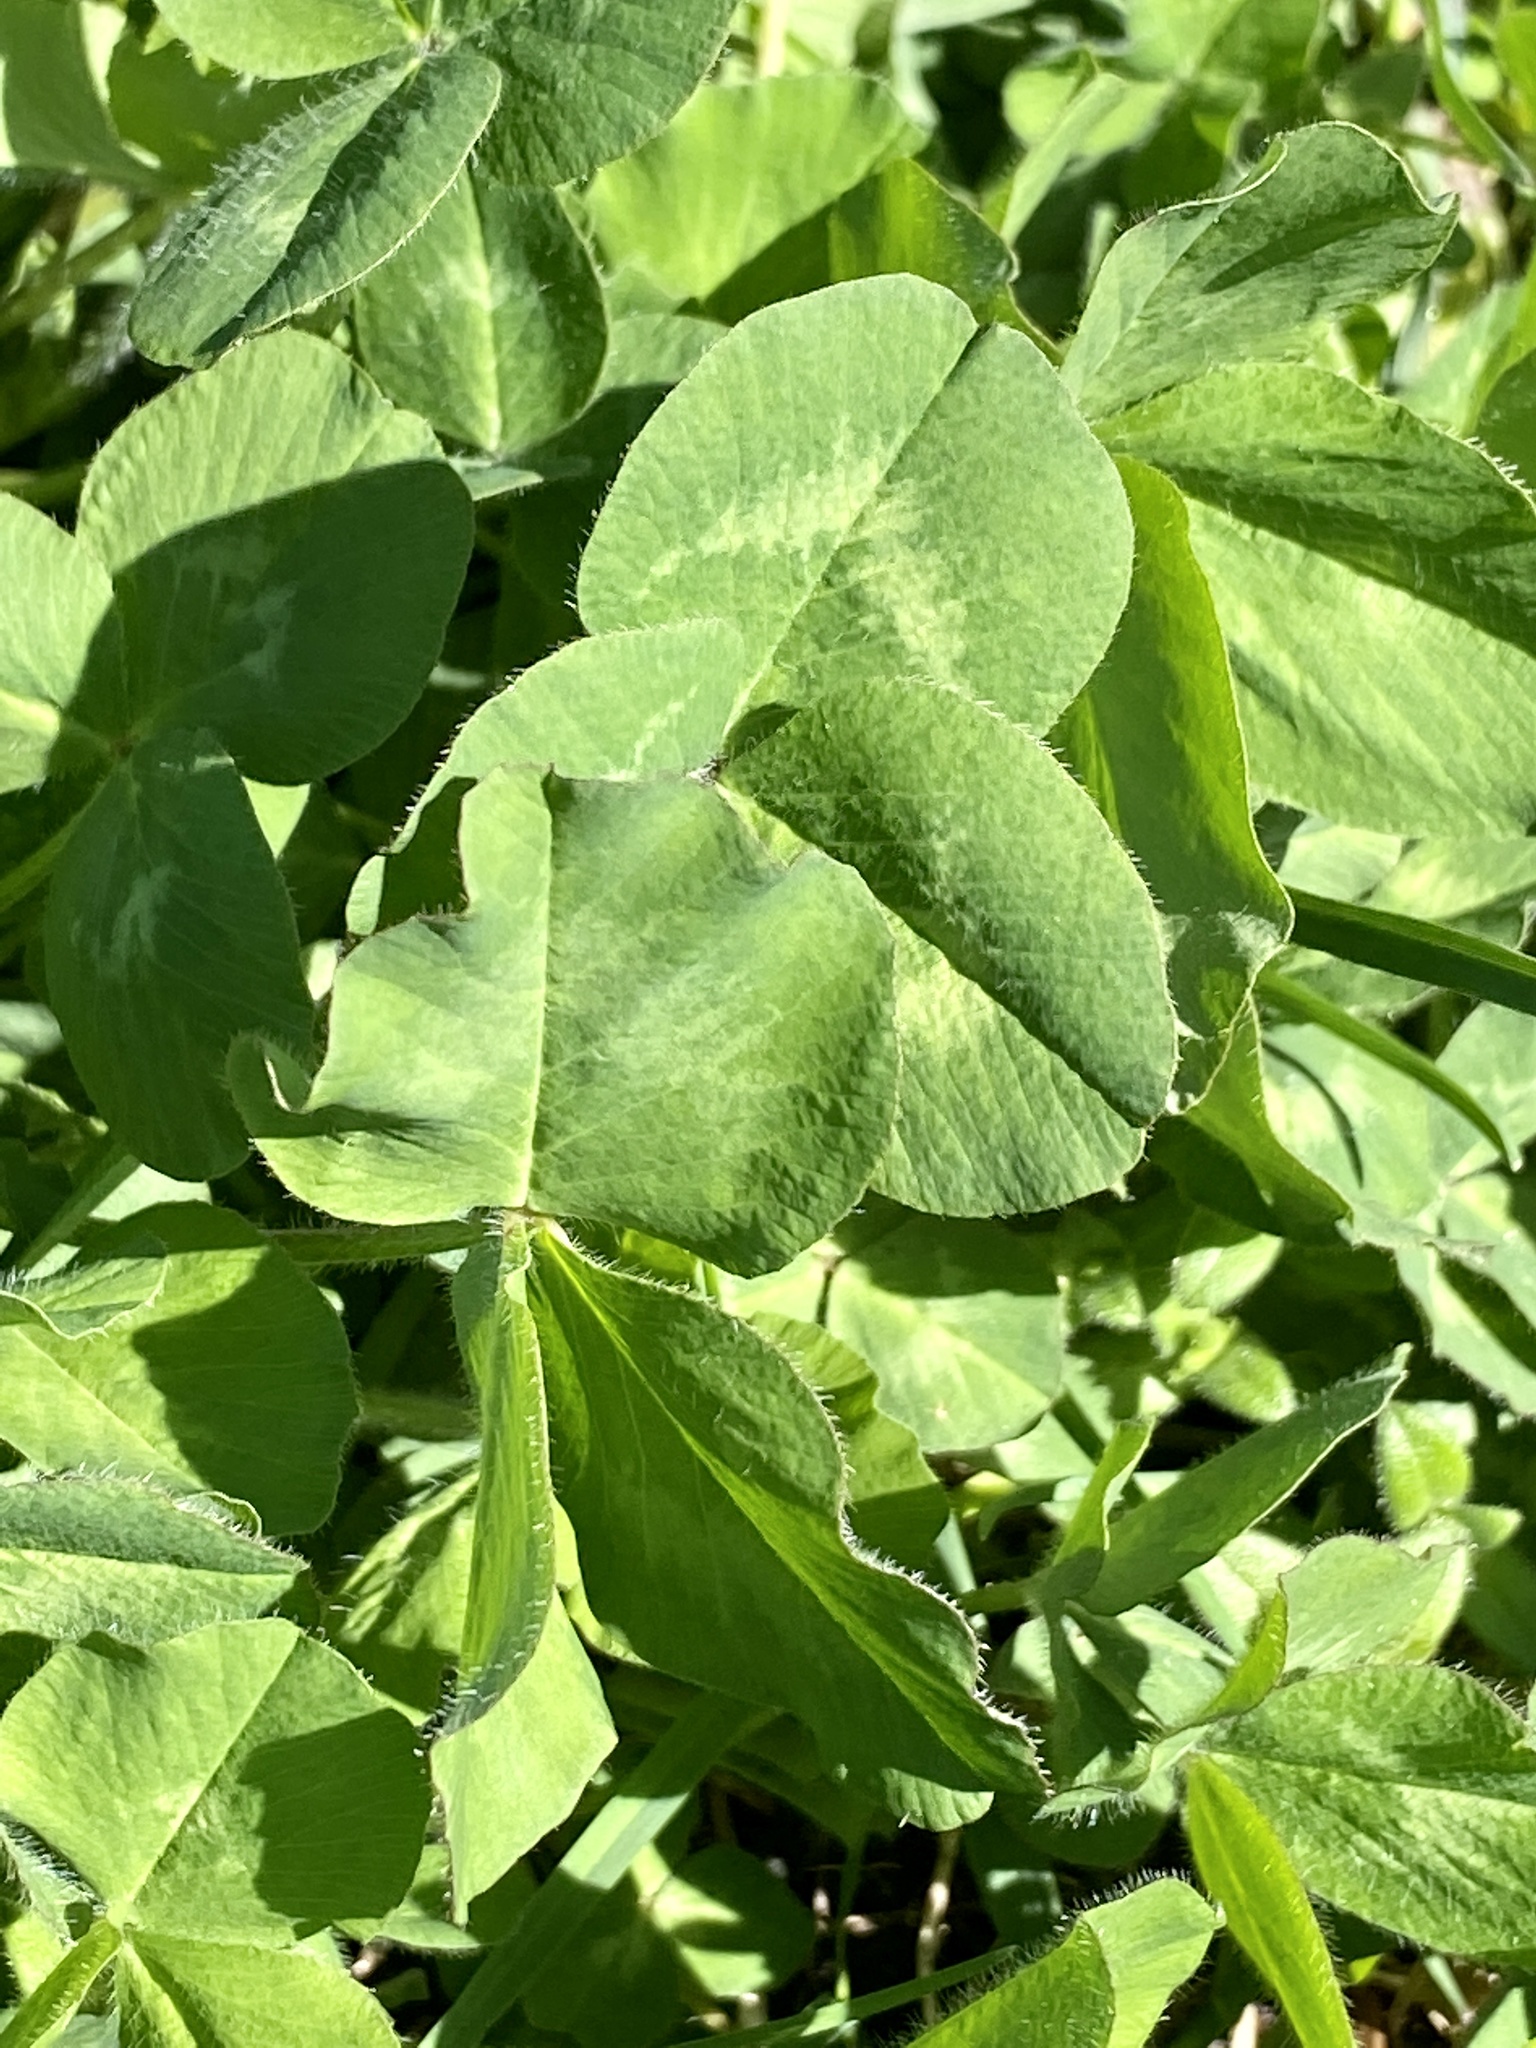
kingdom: Plantae
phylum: Tracheophyta
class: Magnoliopsida
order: Fabales
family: Fabaceae
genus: Trifolium
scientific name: Trifolium pratense
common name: Red clover
